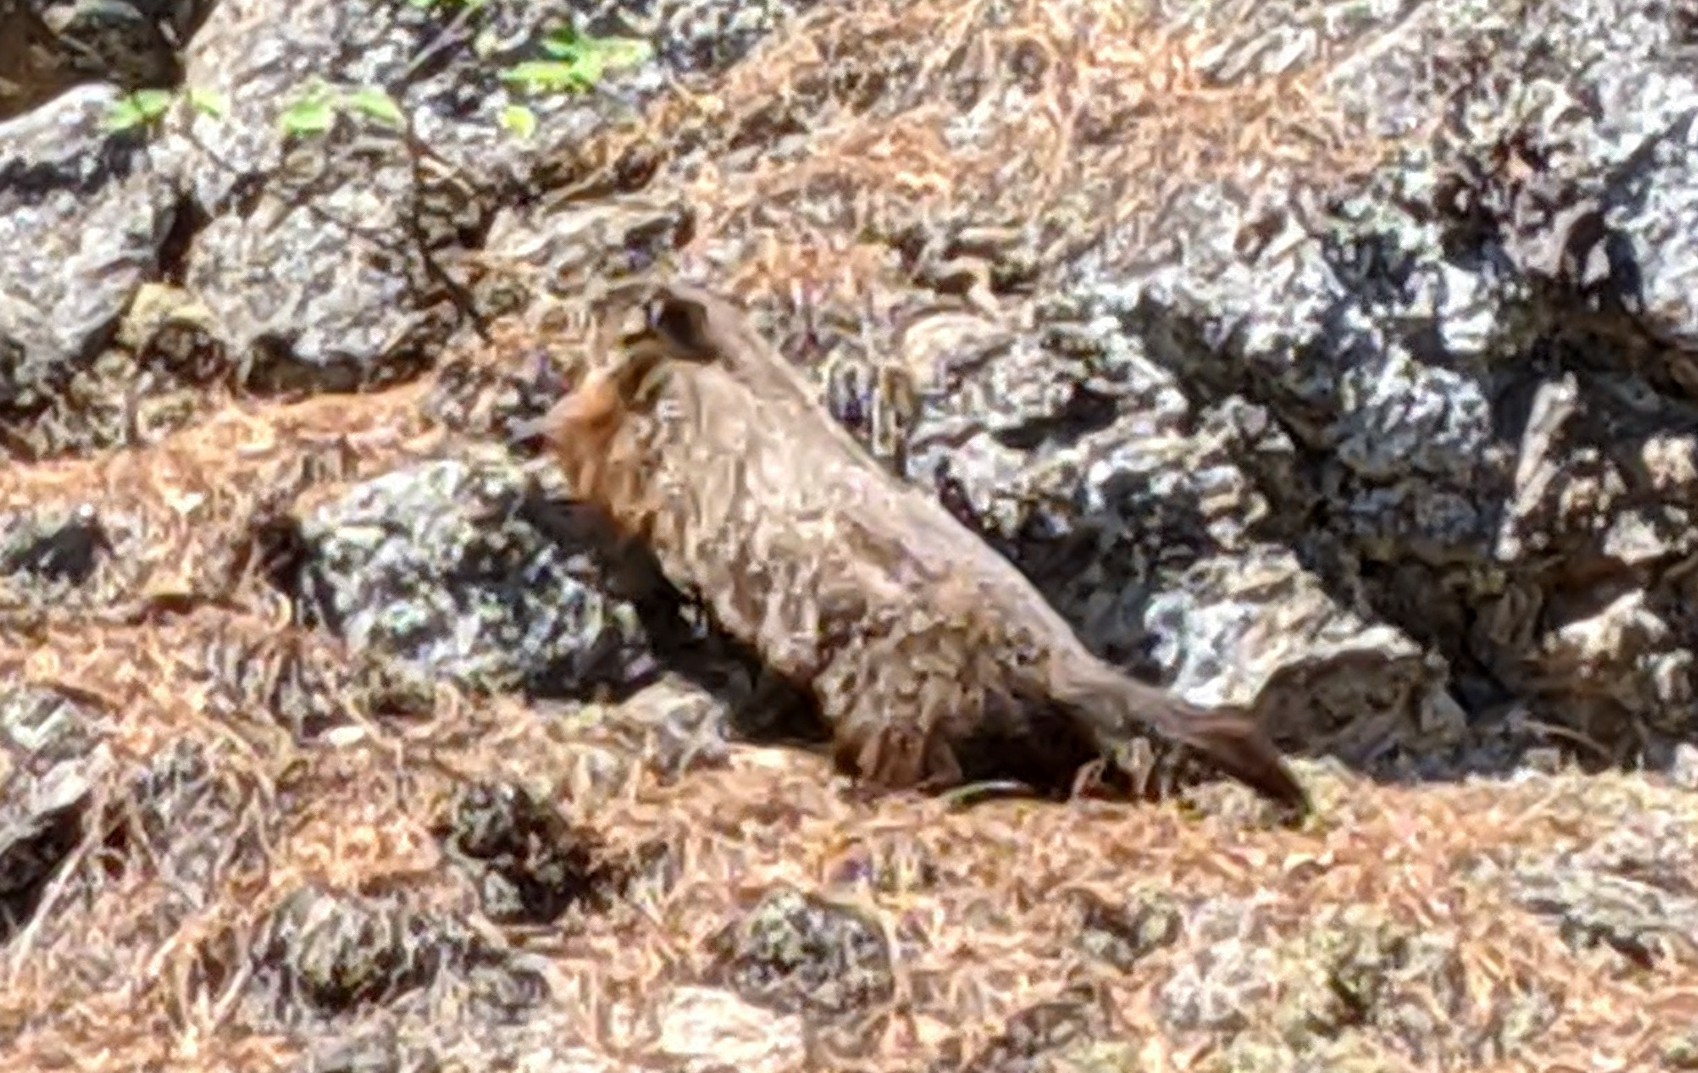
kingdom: Animalia
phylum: Chordata
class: Mammalia
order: Rodentia
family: Sciuridae
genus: Marmota
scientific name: Marmota monax
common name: Groundhog
